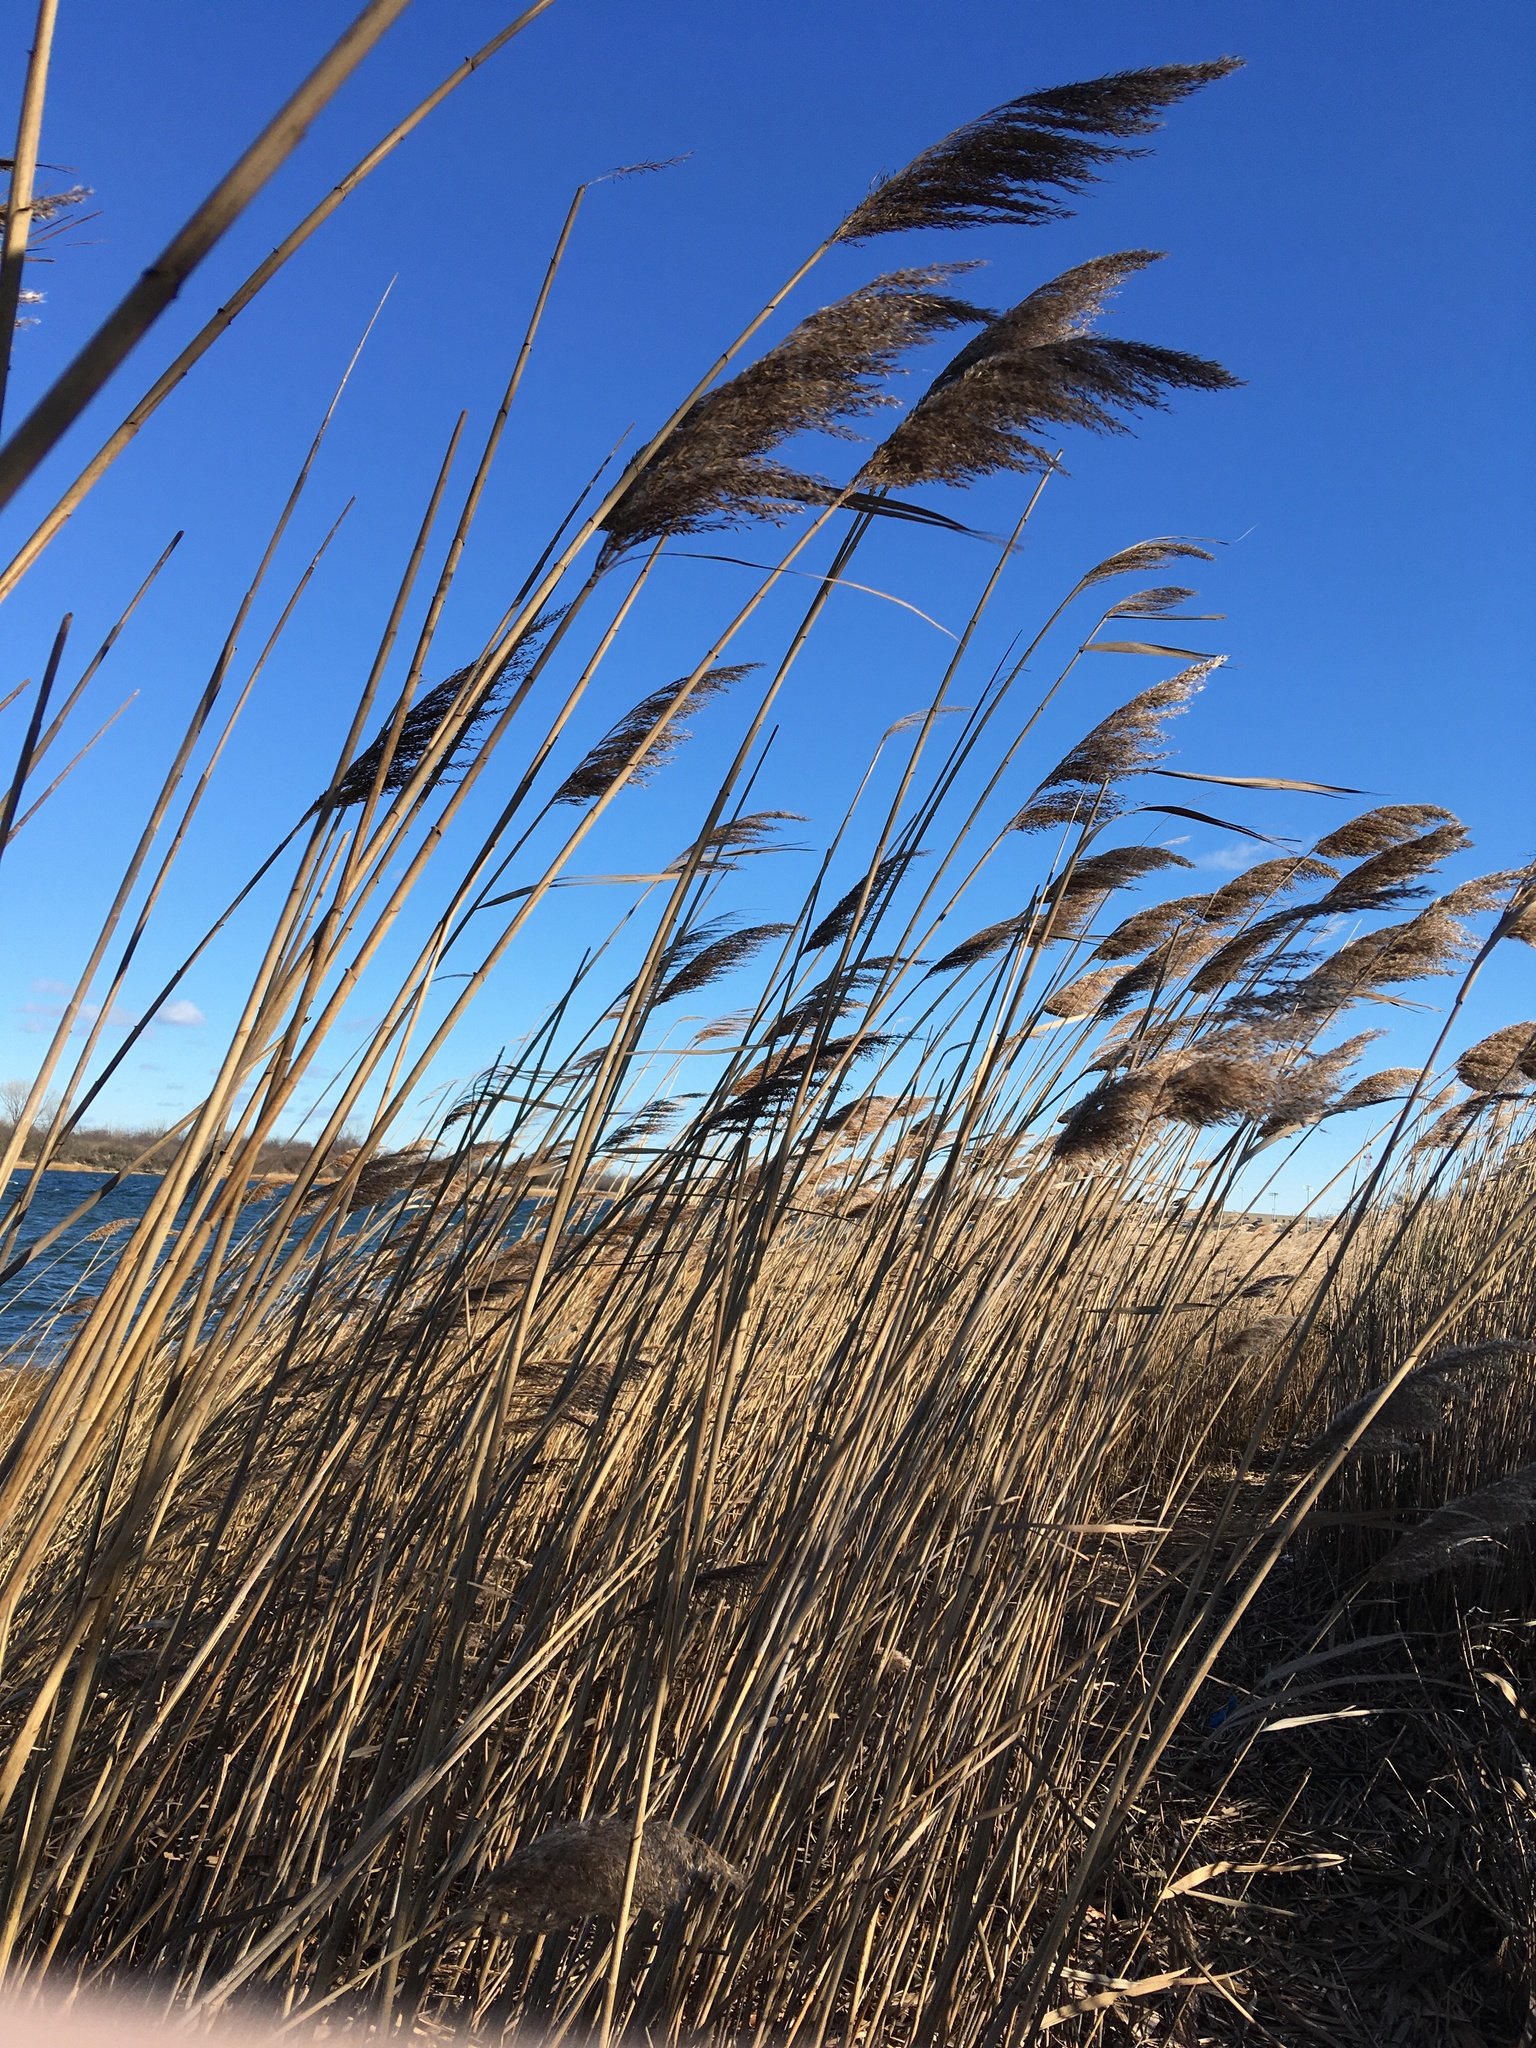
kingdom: Plantae
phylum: Tracheophyta
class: Liliopsida
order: Poales
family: Poaceae
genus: Phragmites
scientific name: Phragmites australis
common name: Common reed
